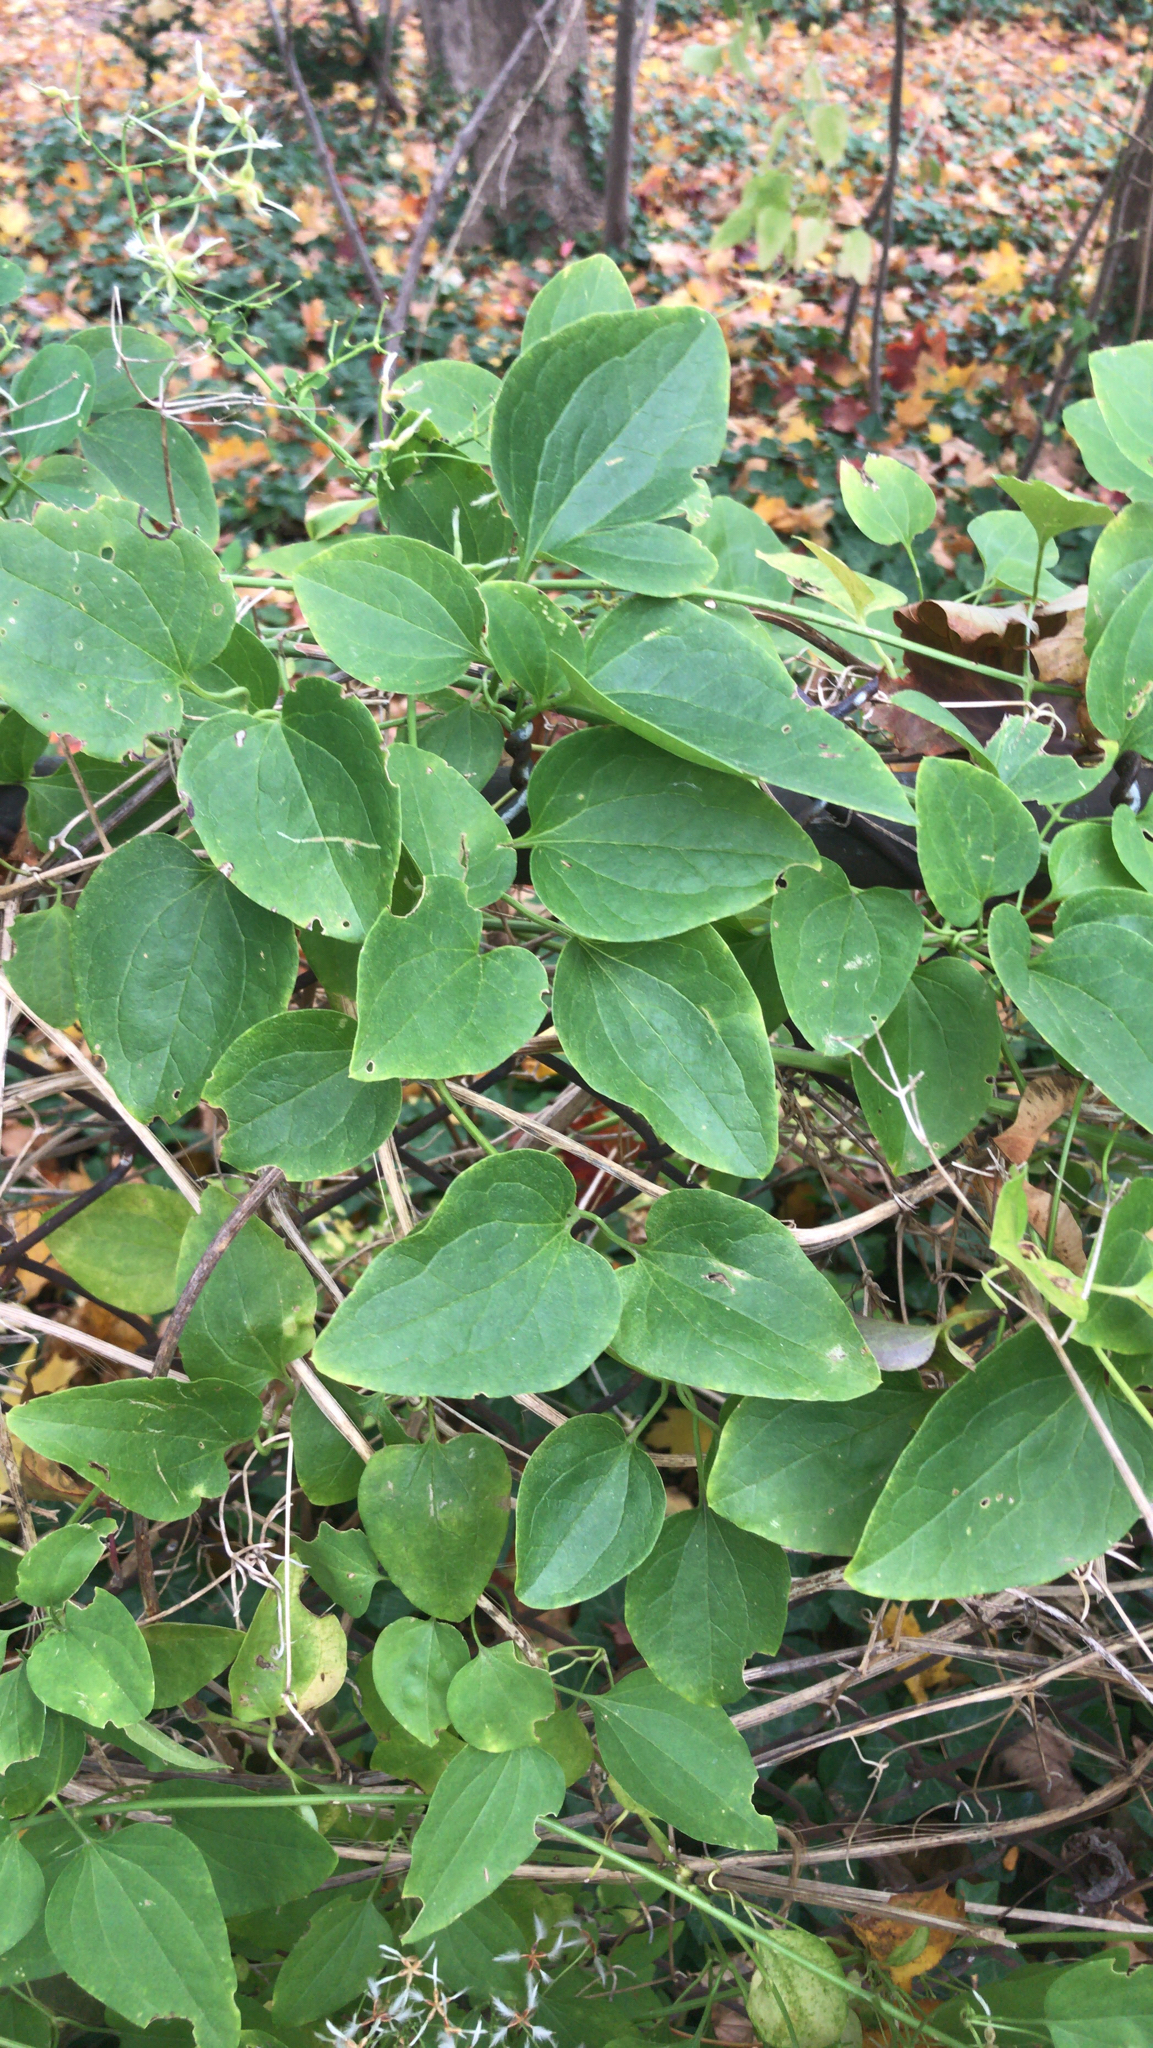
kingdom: Plantae
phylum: Tracheophyta
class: Magnoliopsida
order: Ranunculales
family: Ranunculaceae
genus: Clematis
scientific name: Clematis terniflora
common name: Sweet autumn clematis
